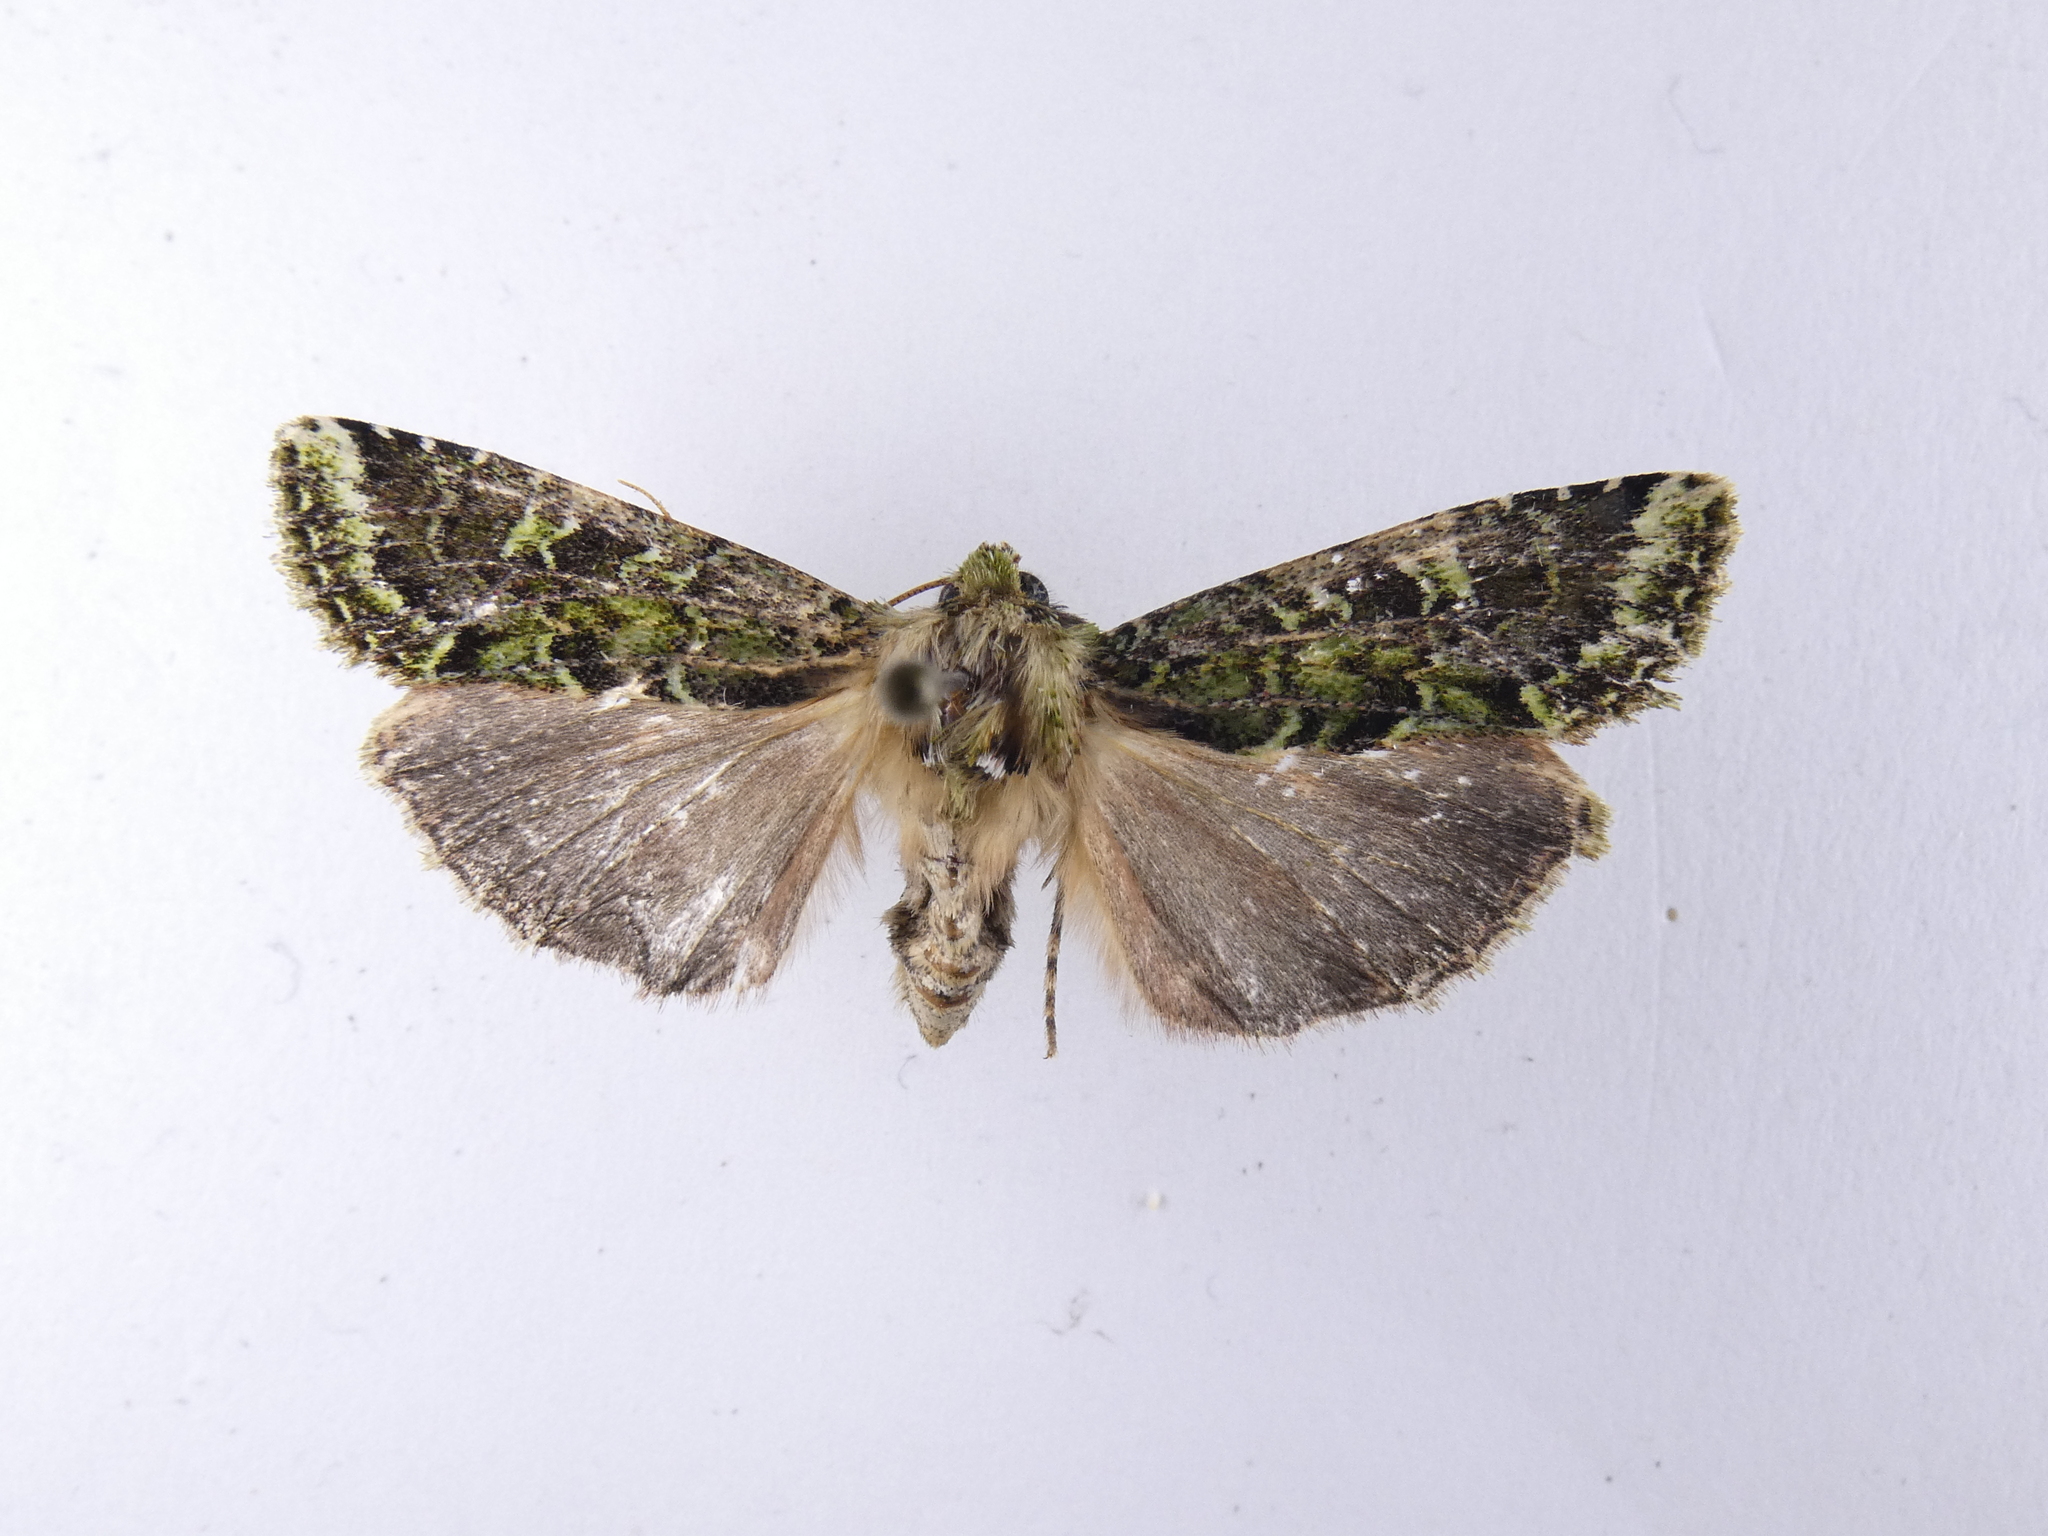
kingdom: Animalia
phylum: Arthropoda
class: Insecta
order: Lepidoptera
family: Noctuidae
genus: Feredayia
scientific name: Feredayia grammosa
